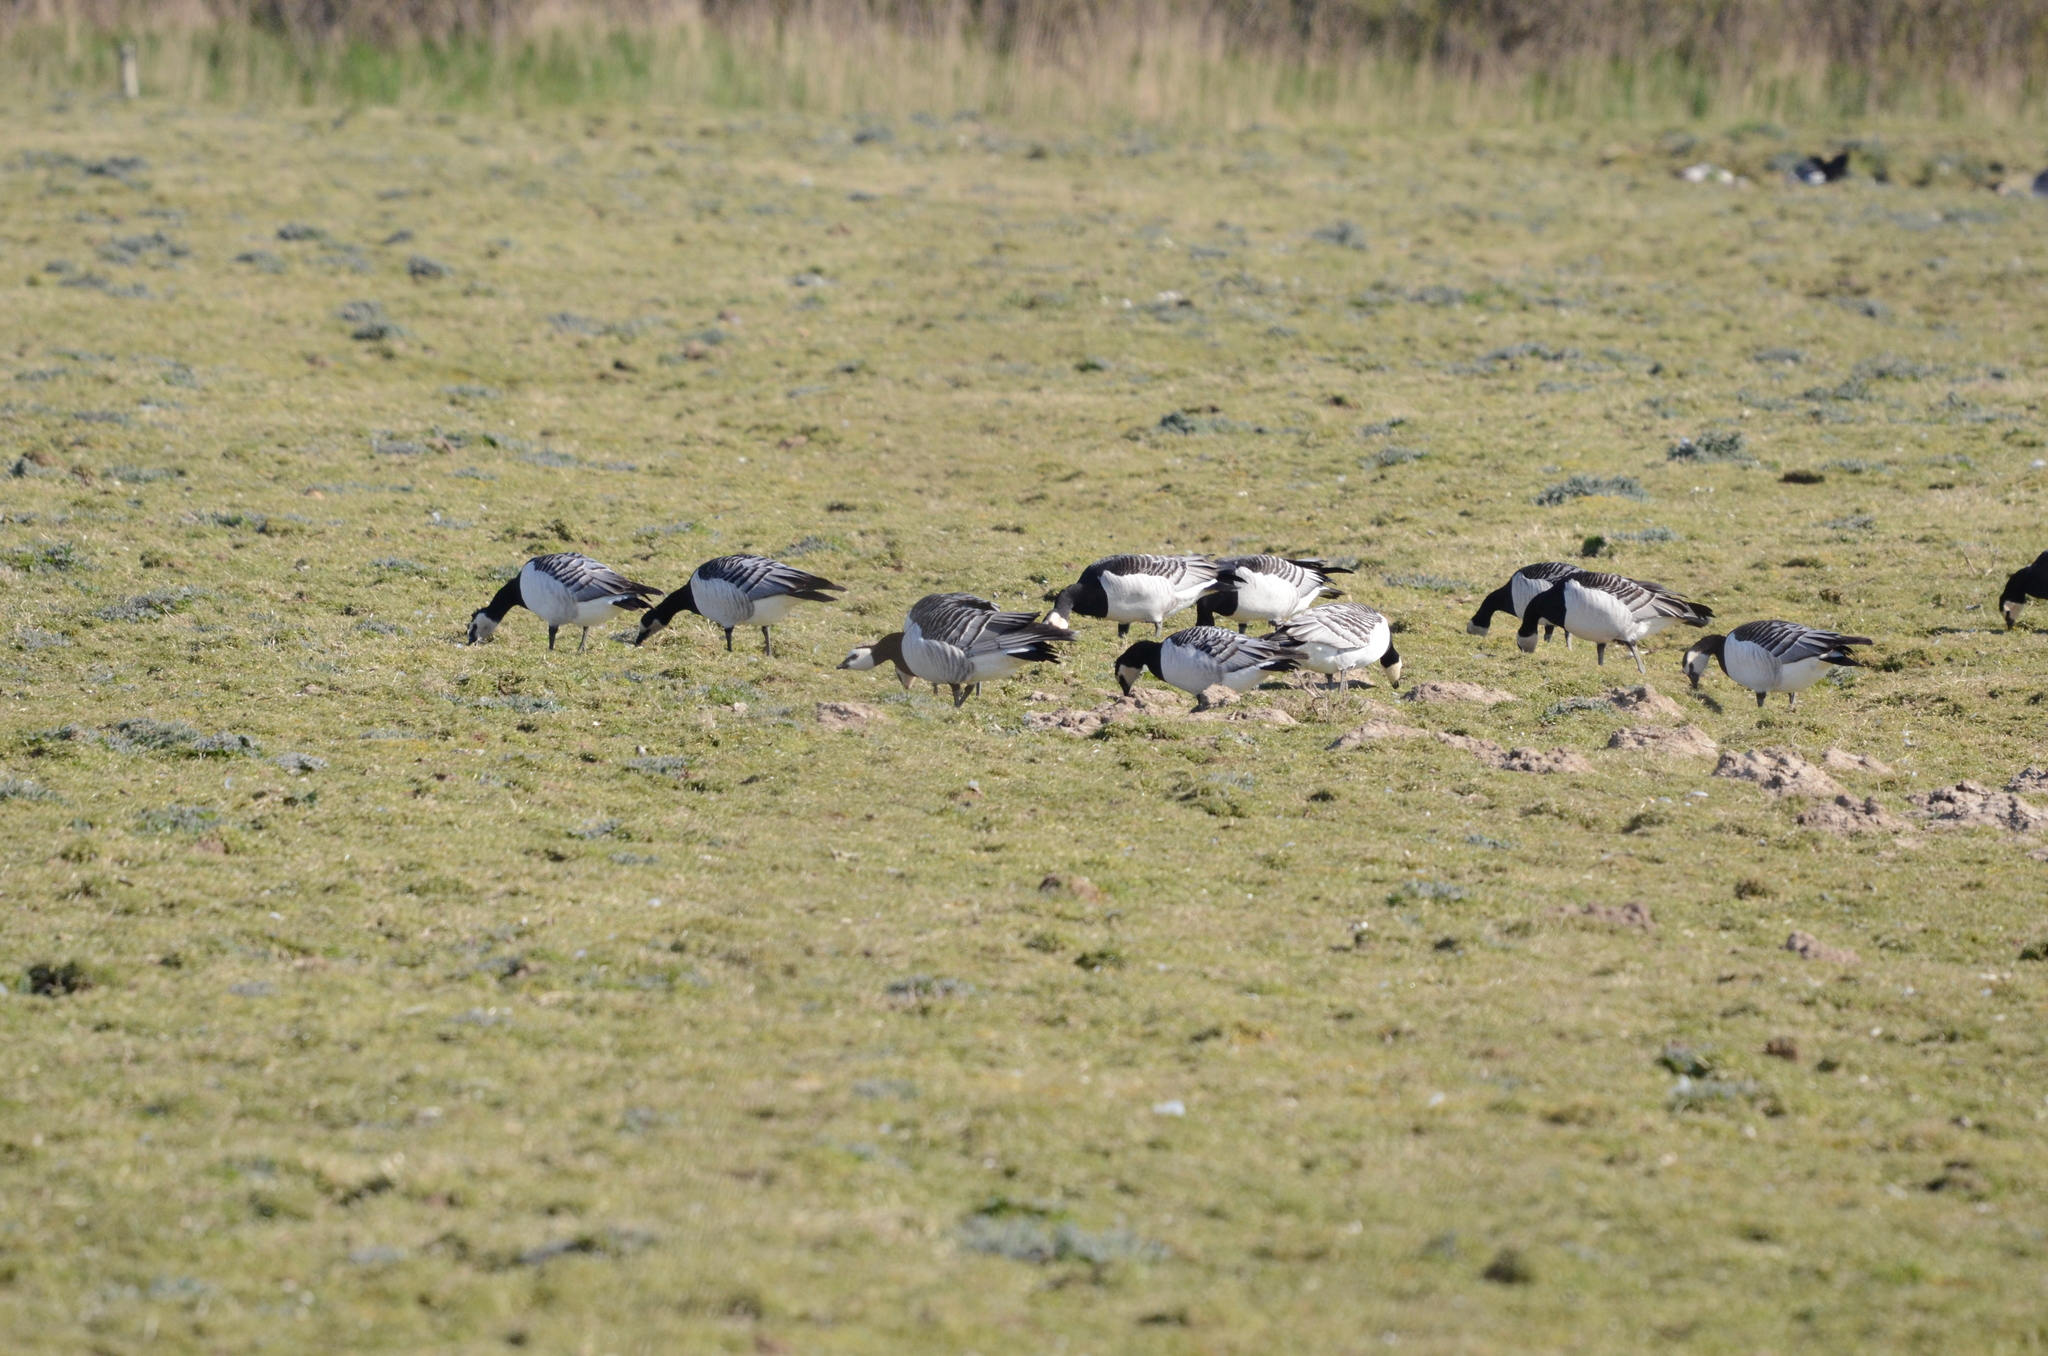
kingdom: Animalia
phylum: Chordata
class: Aves
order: Anseriformes
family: Anatidae
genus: Branta
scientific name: Branta leucopsis
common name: Barnacle goose
